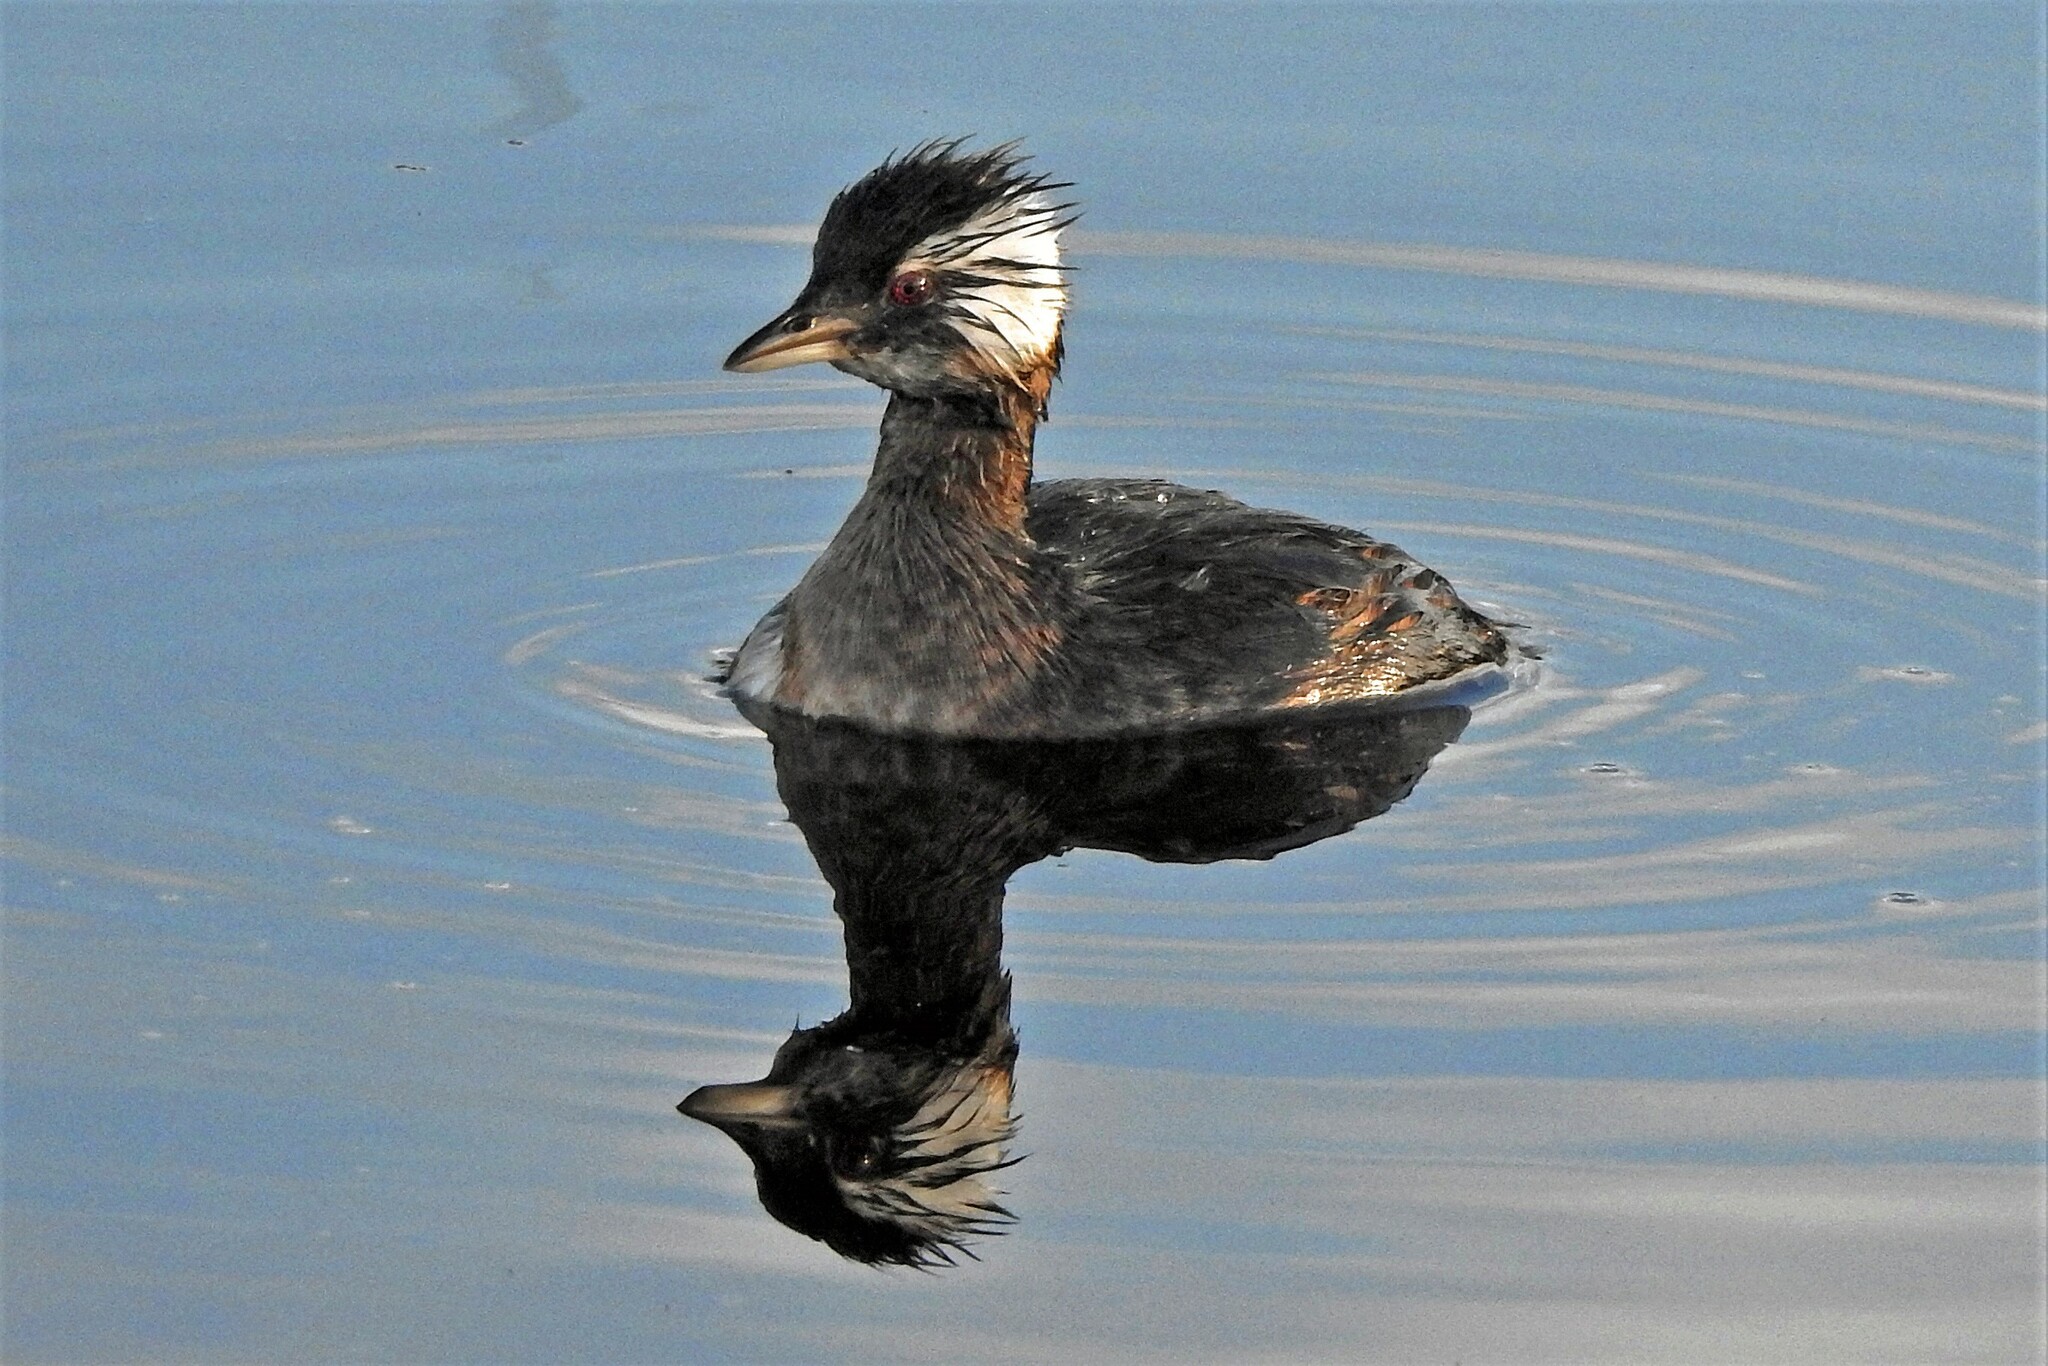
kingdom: Animalia
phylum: Chordata
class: Aves
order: Podicipediformes
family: Podicipedidae
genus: Rollandia
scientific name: Rollandia rolland
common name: White-tufted grebe
